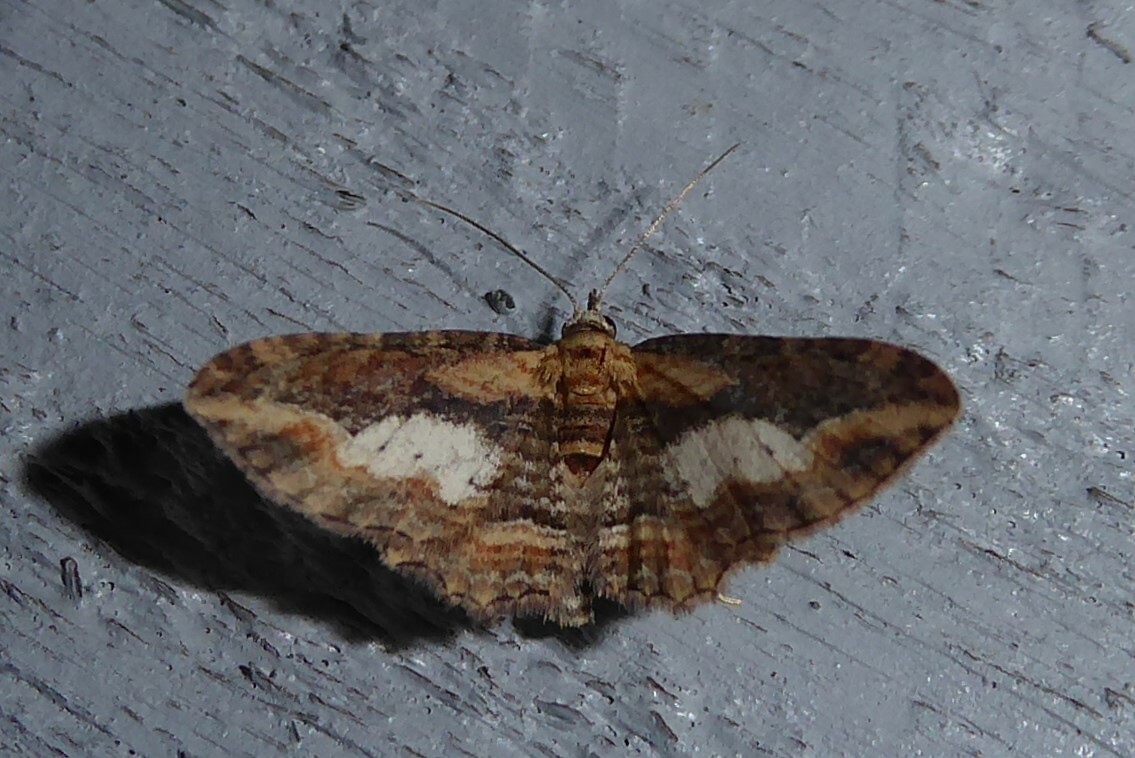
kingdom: Animalia
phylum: Arthropoda
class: Insecta
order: Lepidoptera
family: Geometridae
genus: Chloroclystis
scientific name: Chloroclystis filata
